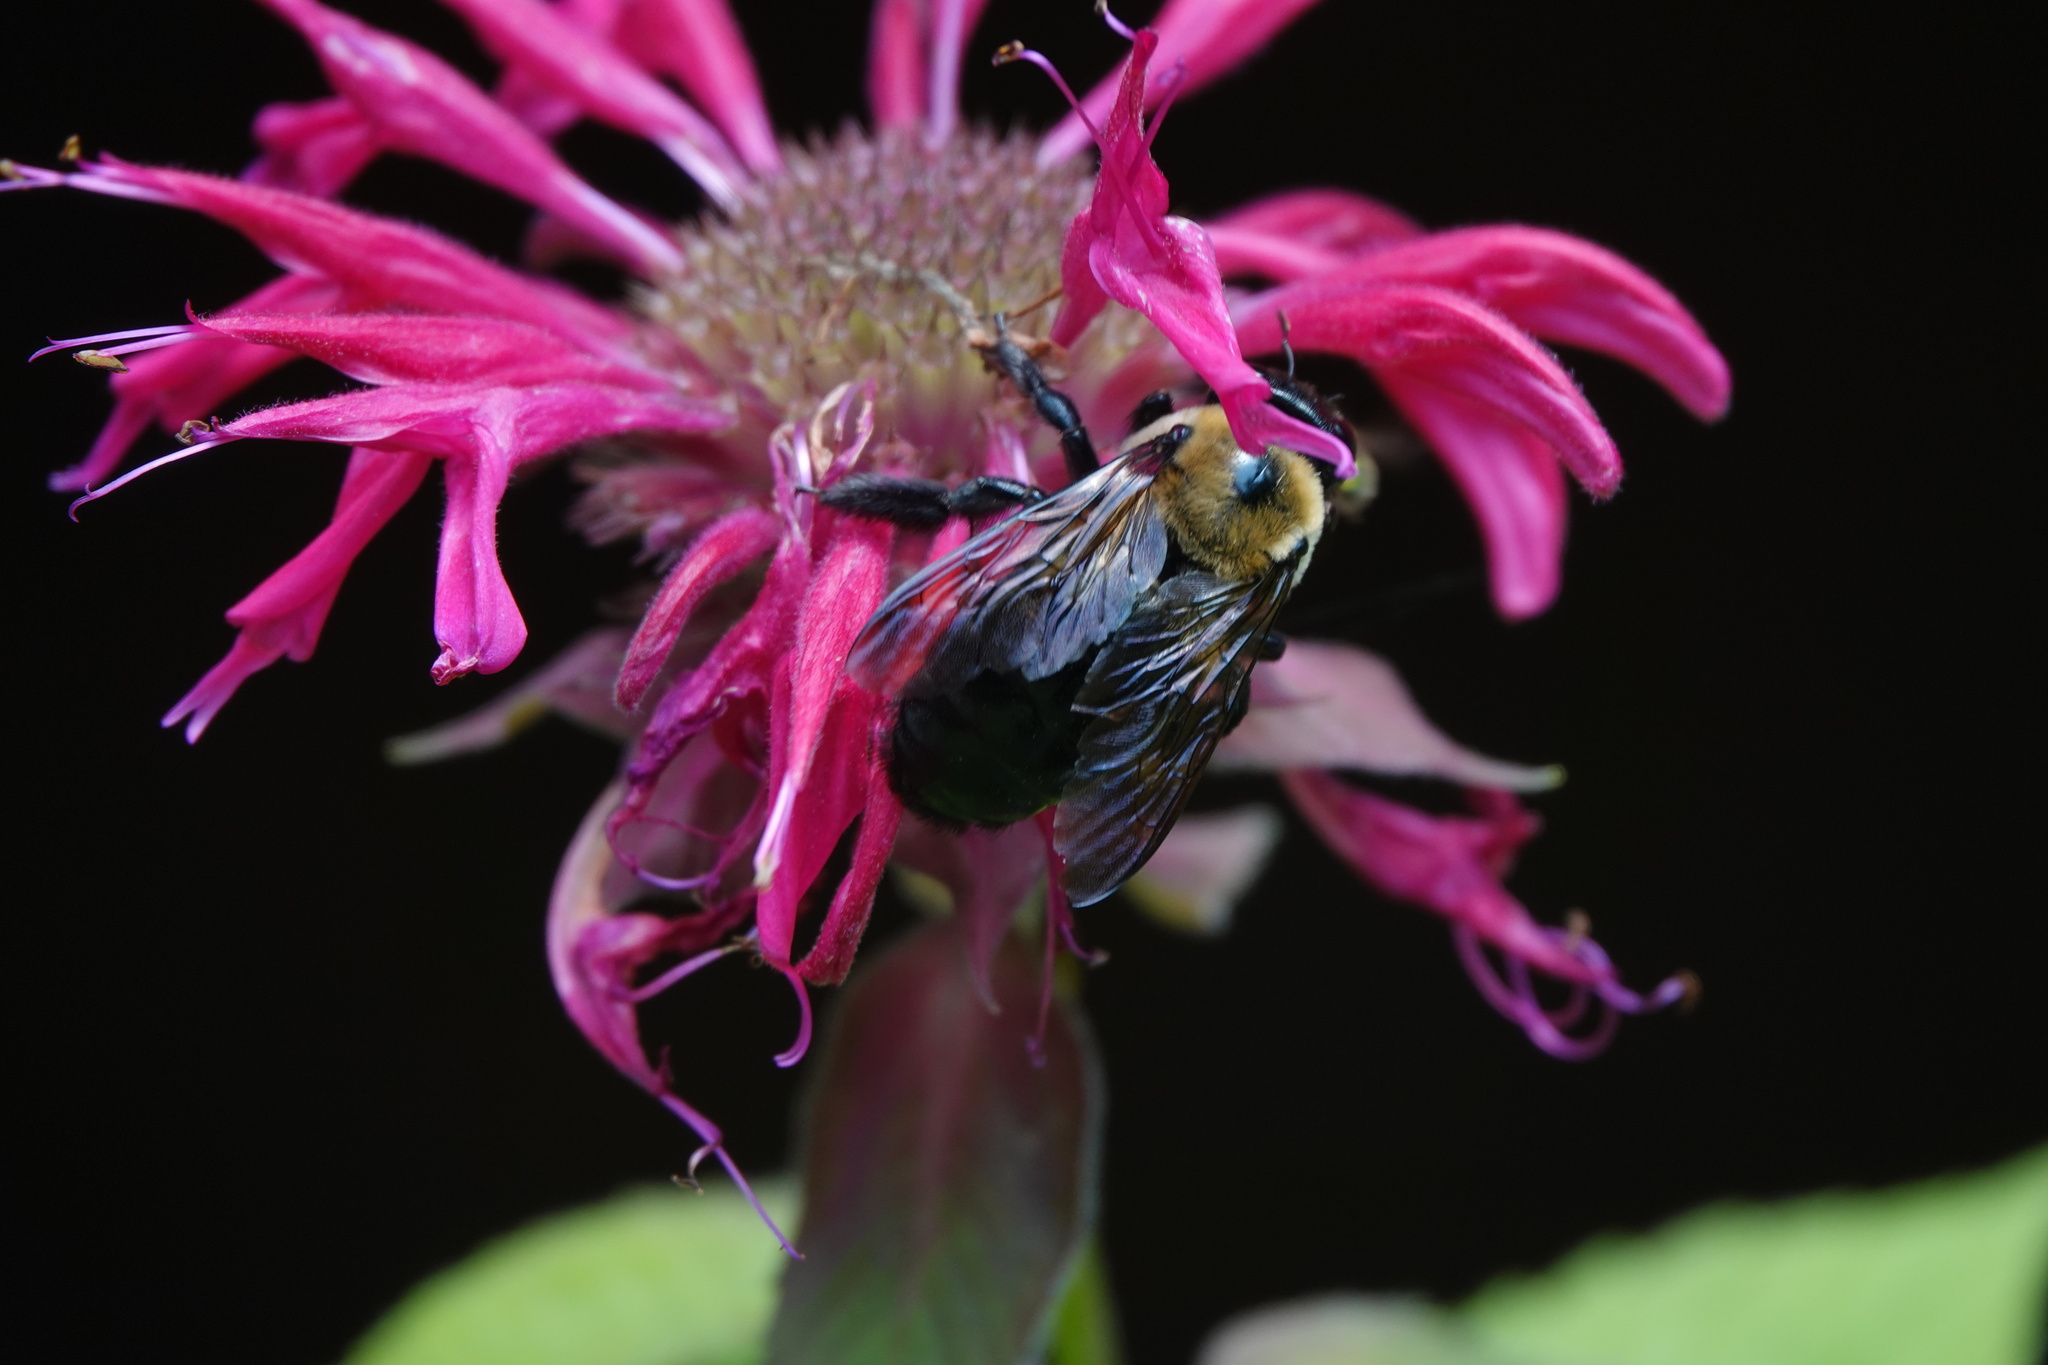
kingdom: Animalia
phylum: Arthropoda
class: Insecta
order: Hymenoptera
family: Apidae
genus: Xylocopa
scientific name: Xylocopa virginica
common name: Carpenter bee
